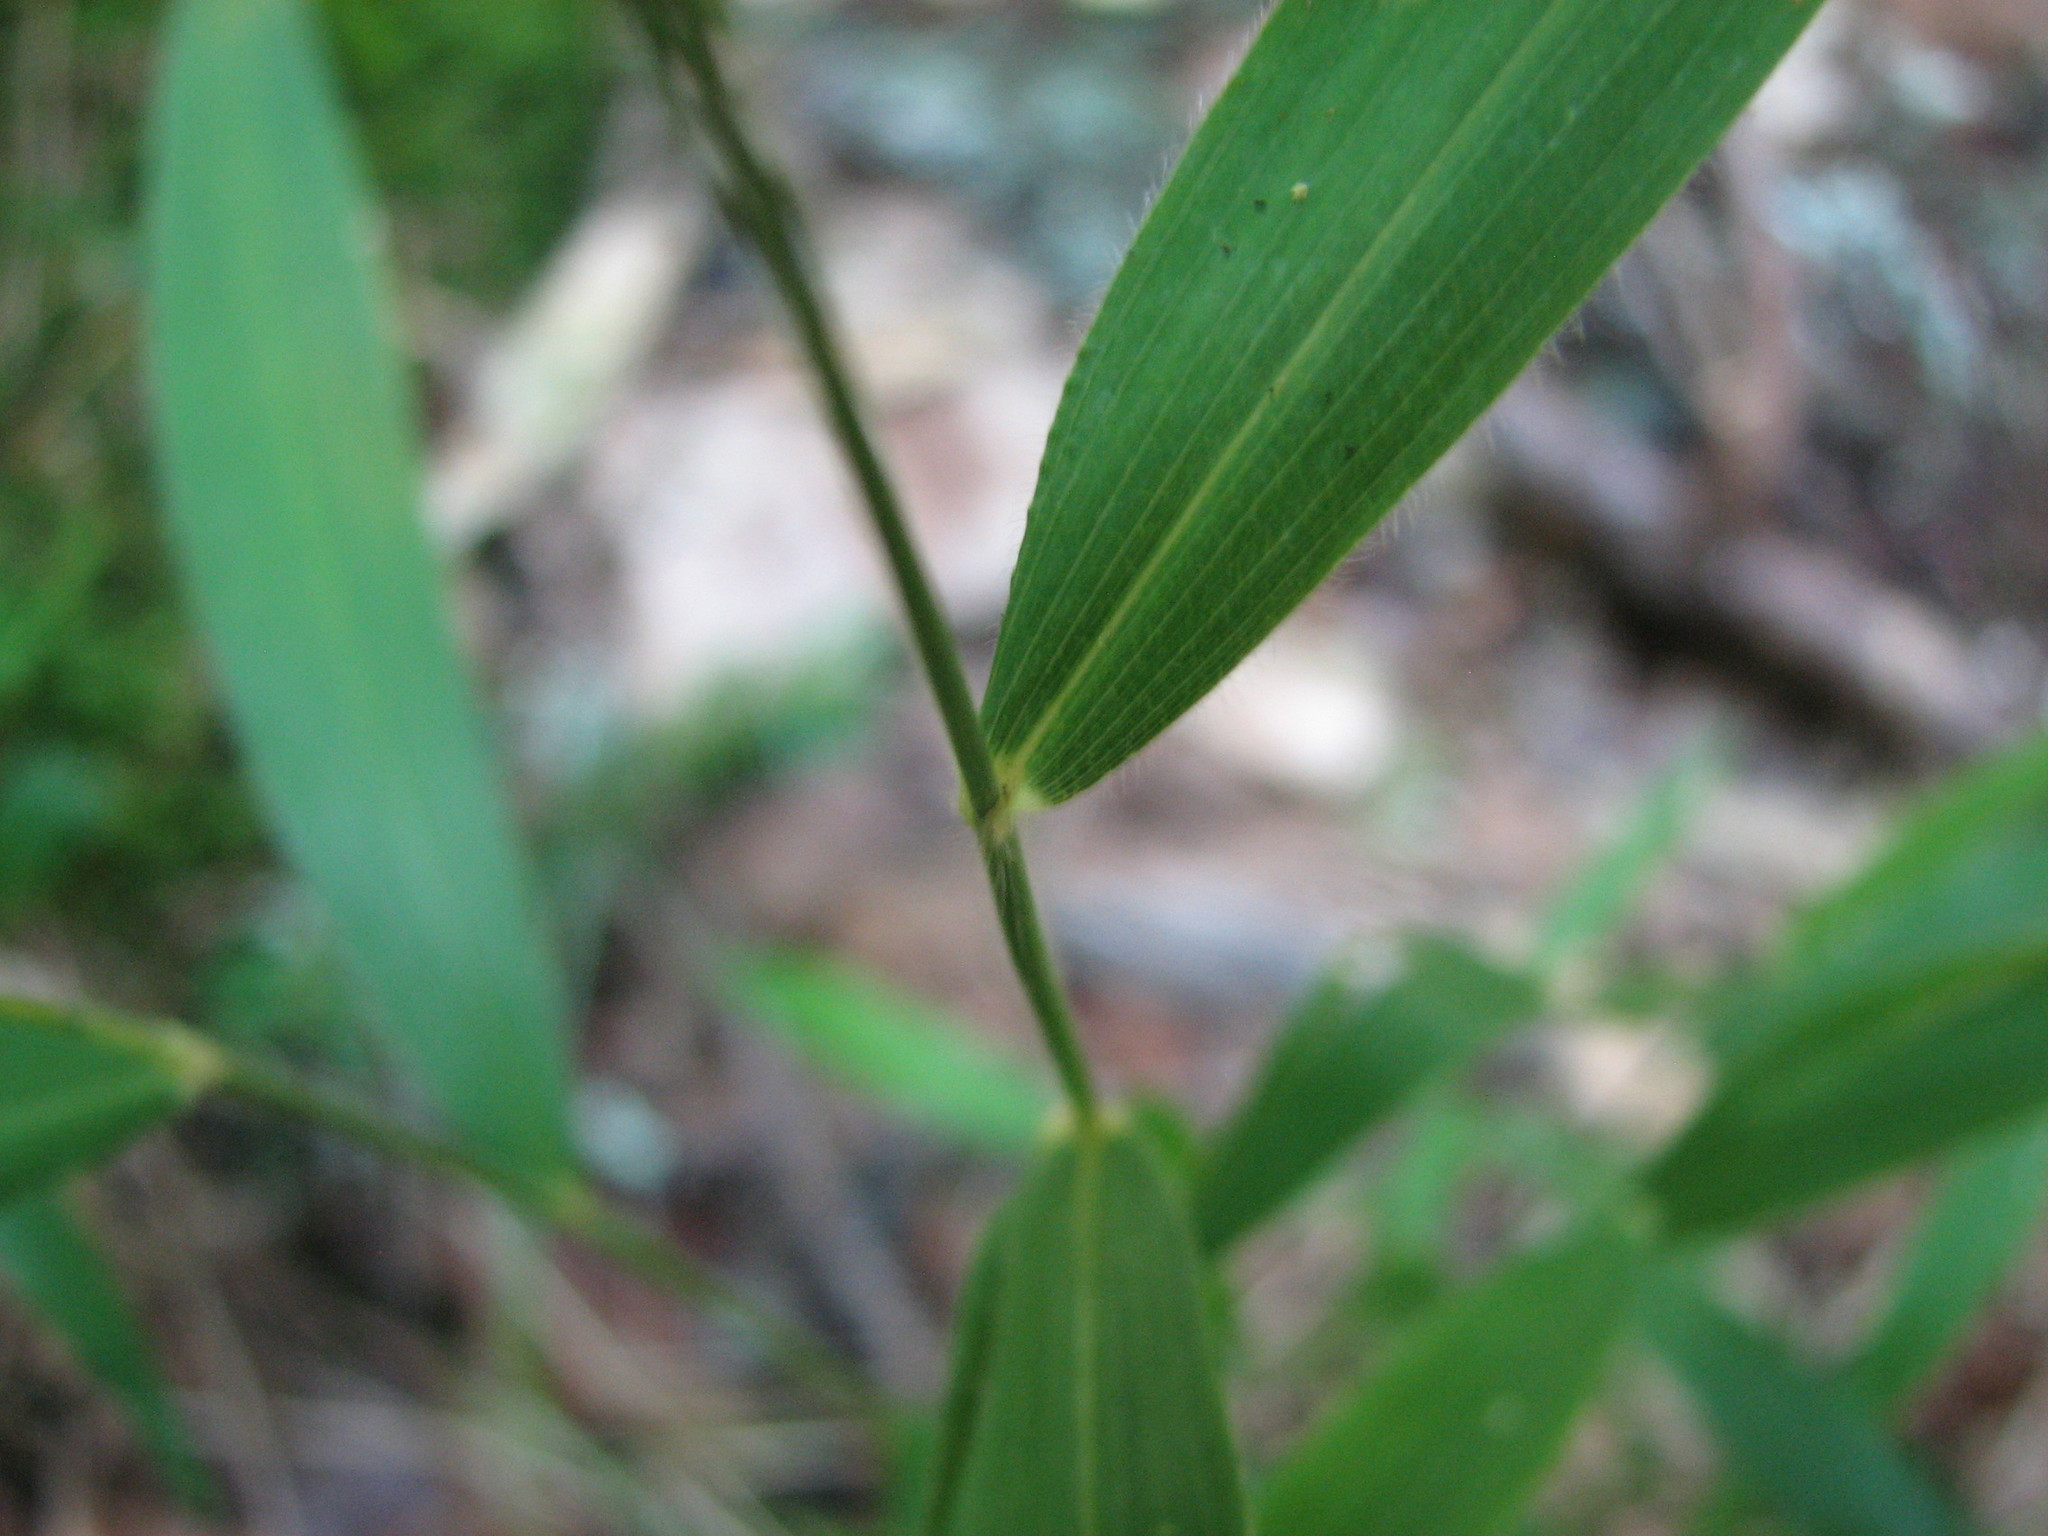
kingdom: Plantae
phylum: Tracheophyta
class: Liliopsida
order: Poales
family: Poaceae
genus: Brachyelytrum
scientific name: Brachyelytrum aristosum
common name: Northern shorthusk
